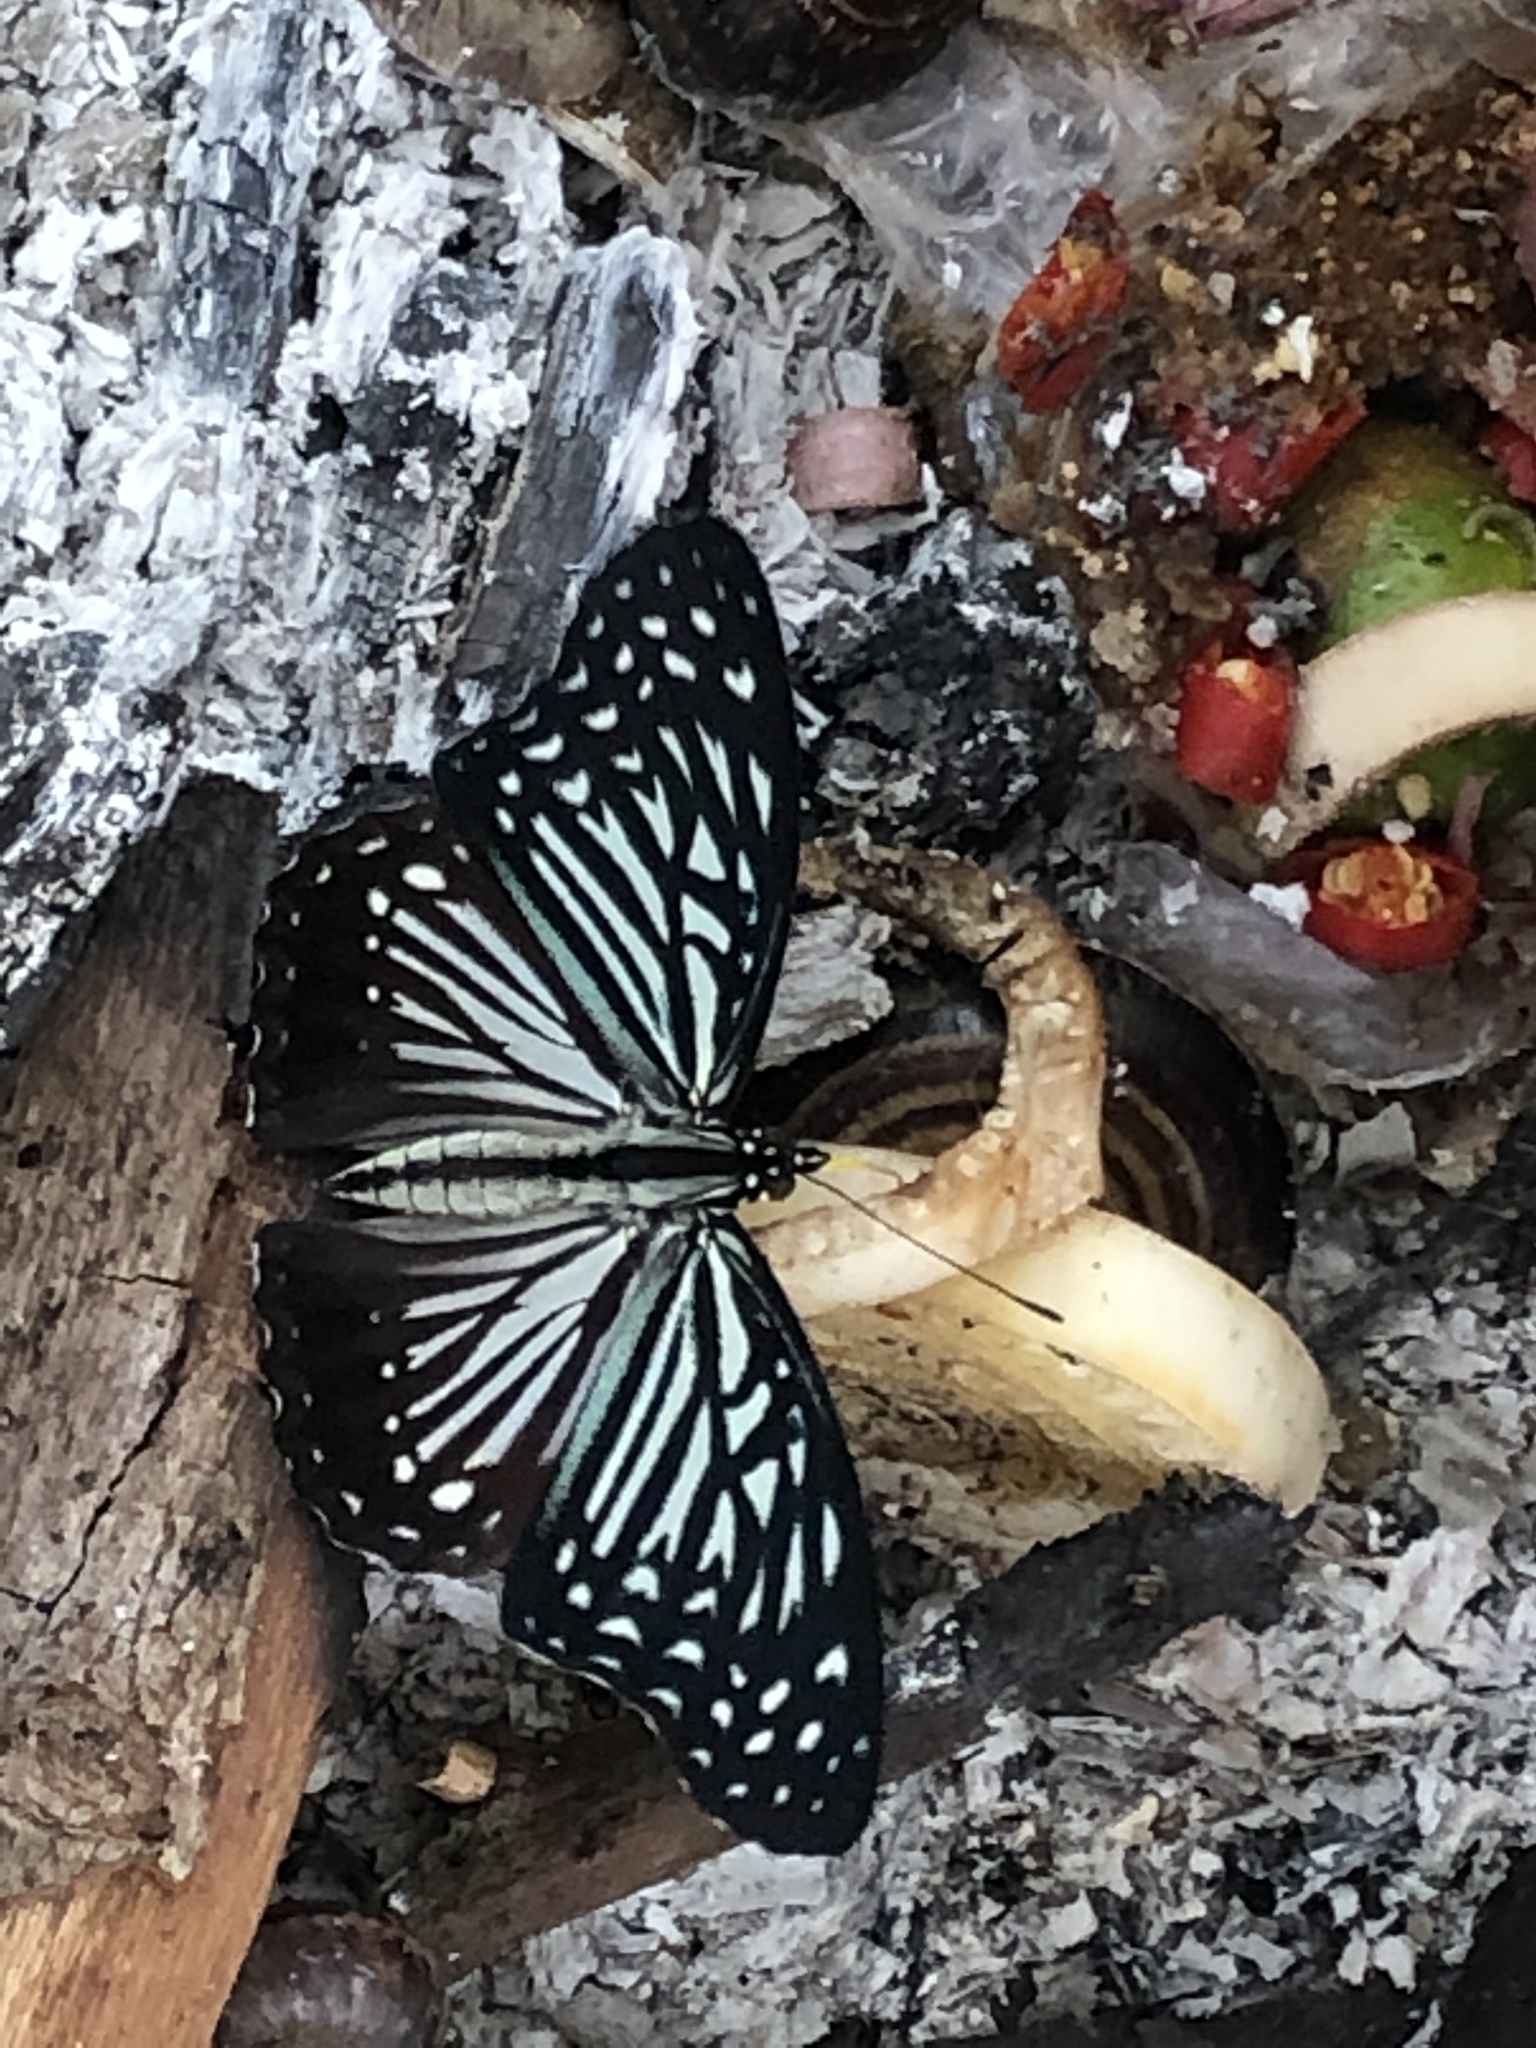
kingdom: Animalia
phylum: Arthropoda
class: Insecta
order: Lepidoptera
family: Nymphalidae
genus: Hestinalis
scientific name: Hestinalis nama
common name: Circe
